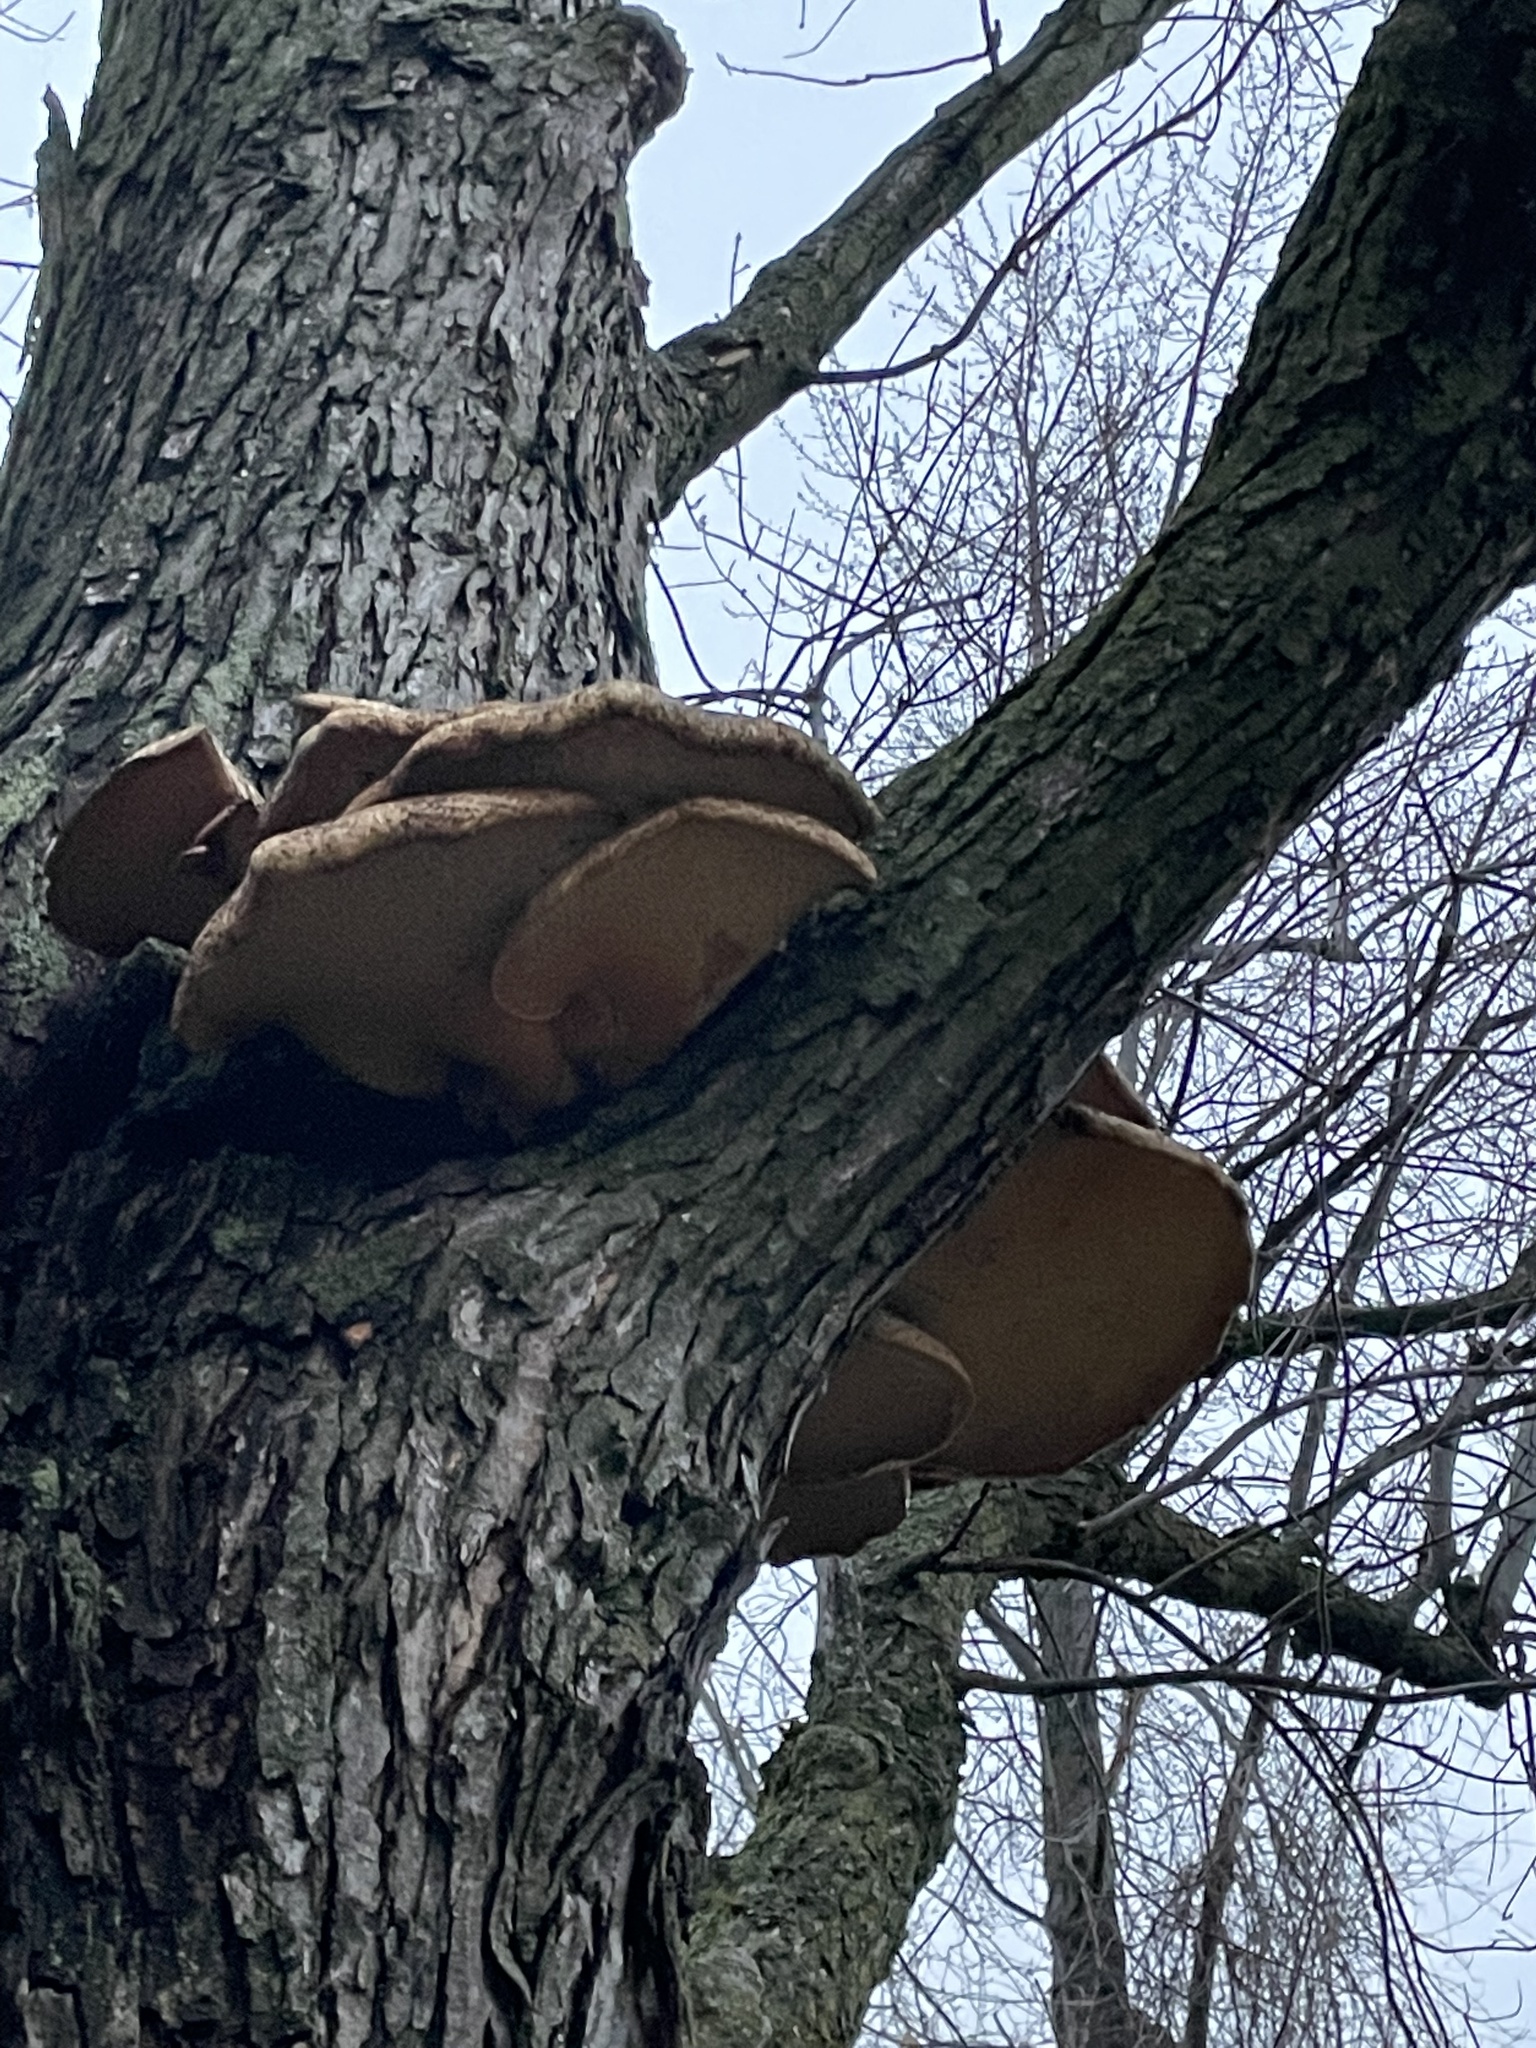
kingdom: Fungi
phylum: Basidiomycota
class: Agaricomycetes
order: Polyporales
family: Polyporaceae
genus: Cerioporus
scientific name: Cerioporus squamosus
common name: Dryad's saddle
